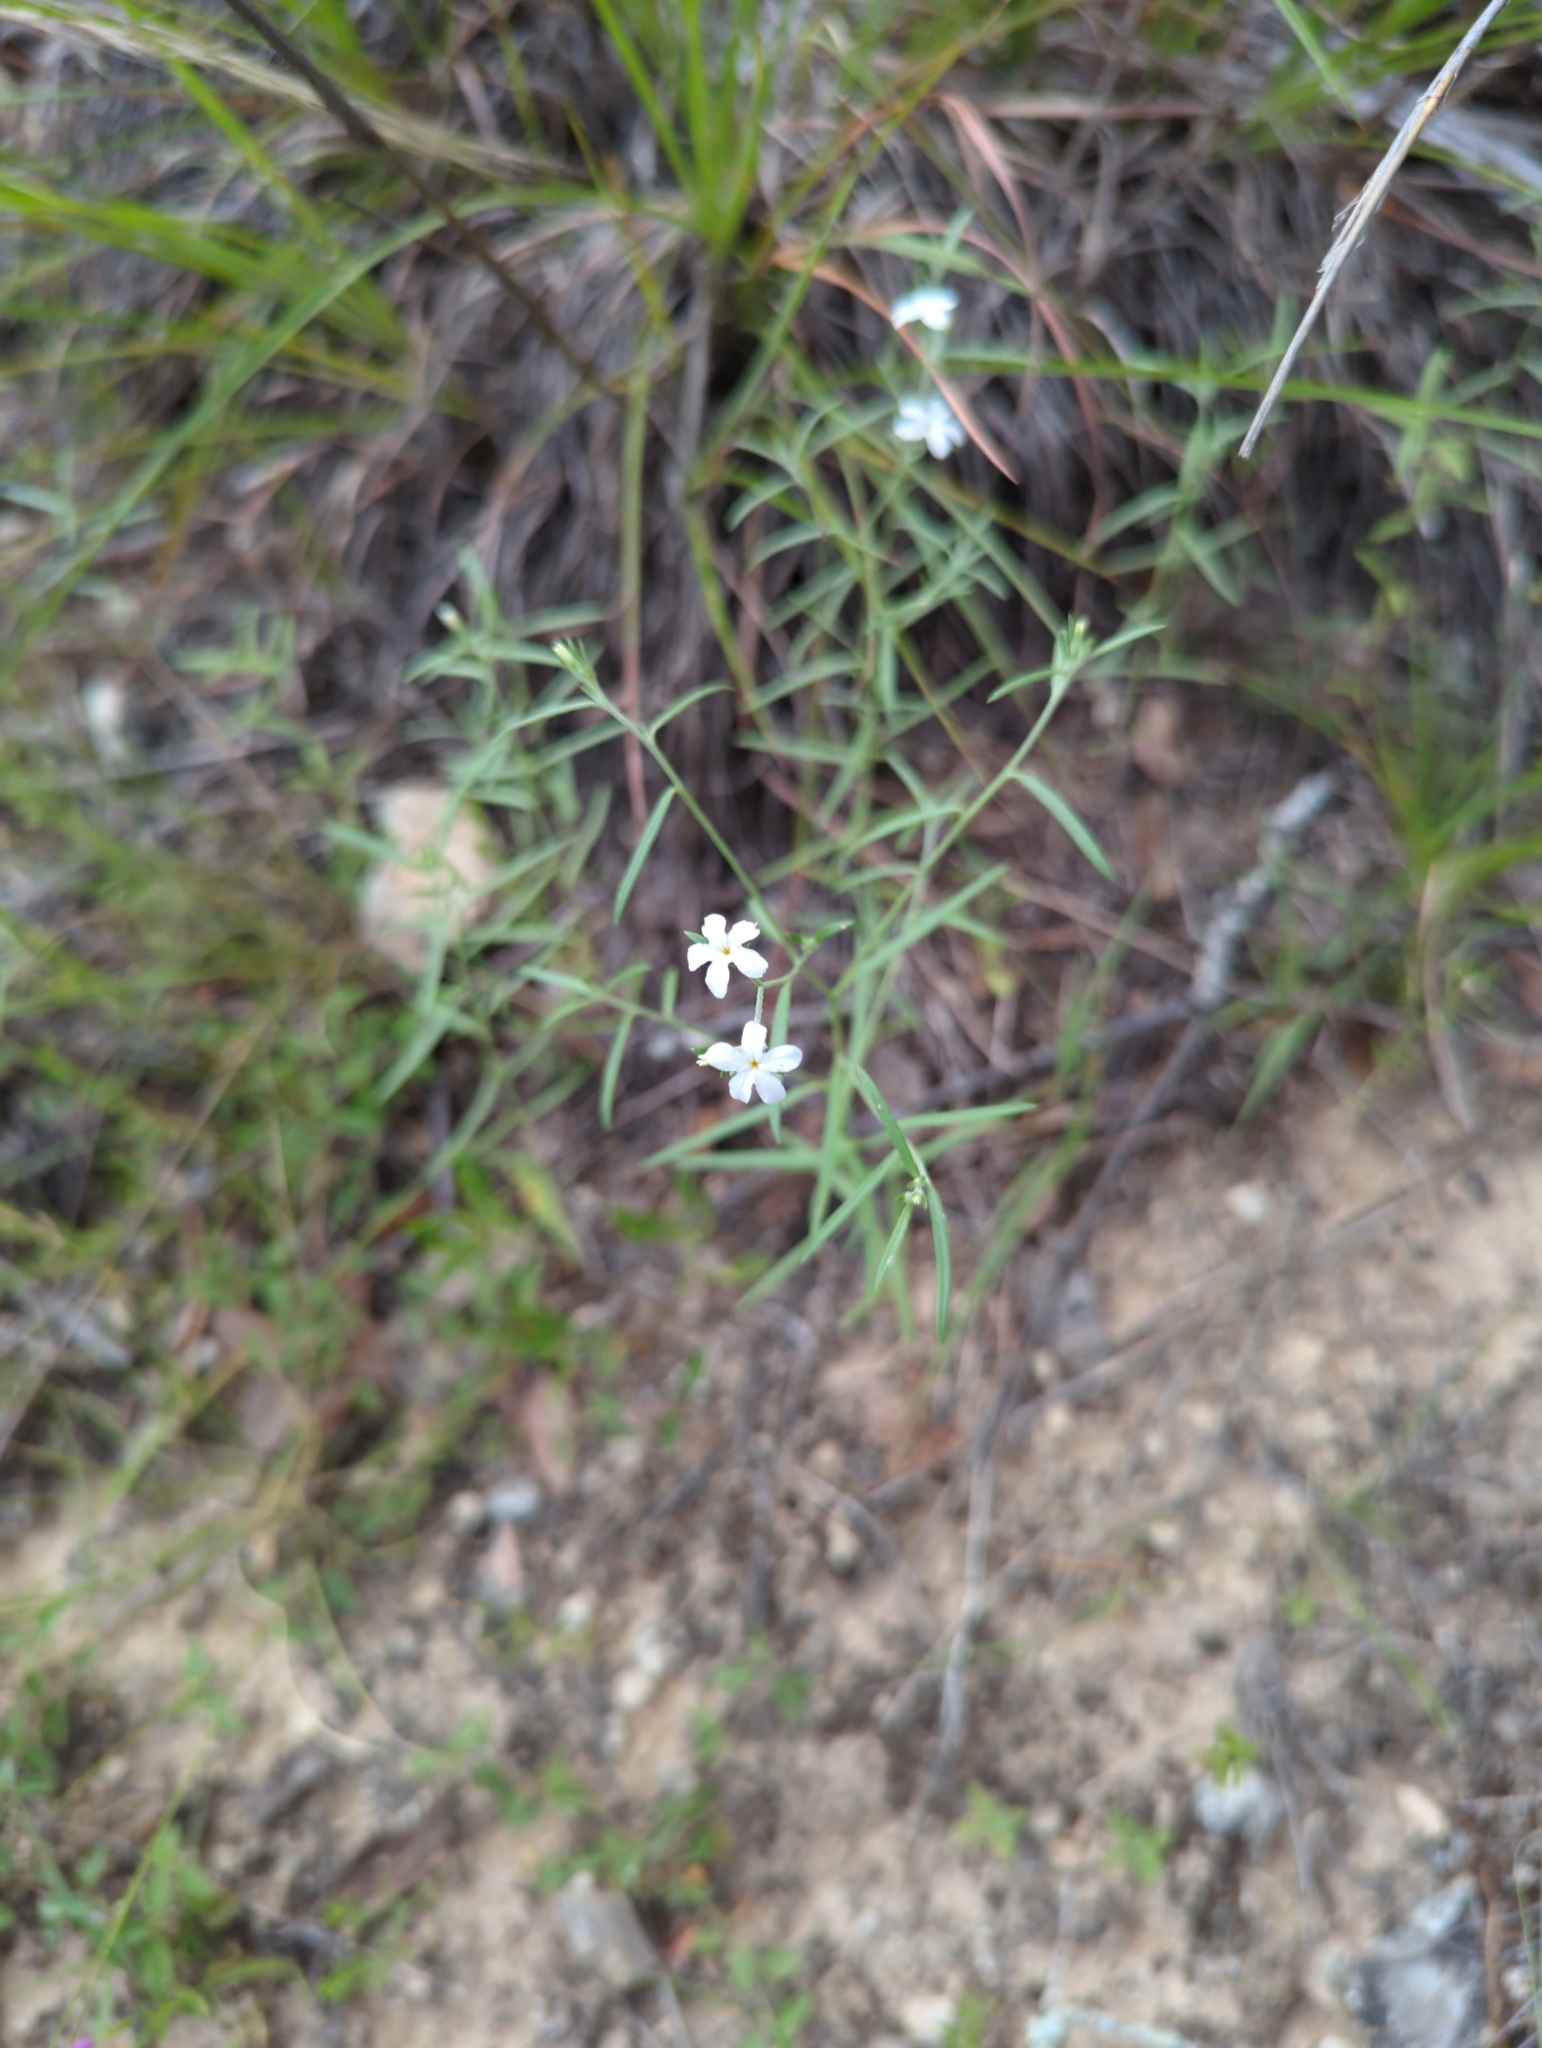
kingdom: Plantae
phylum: Tracheophyta
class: Magnoliopsida
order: Boraginales
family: Heliotropiaceae
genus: Euploca
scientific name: Euploca tenella
